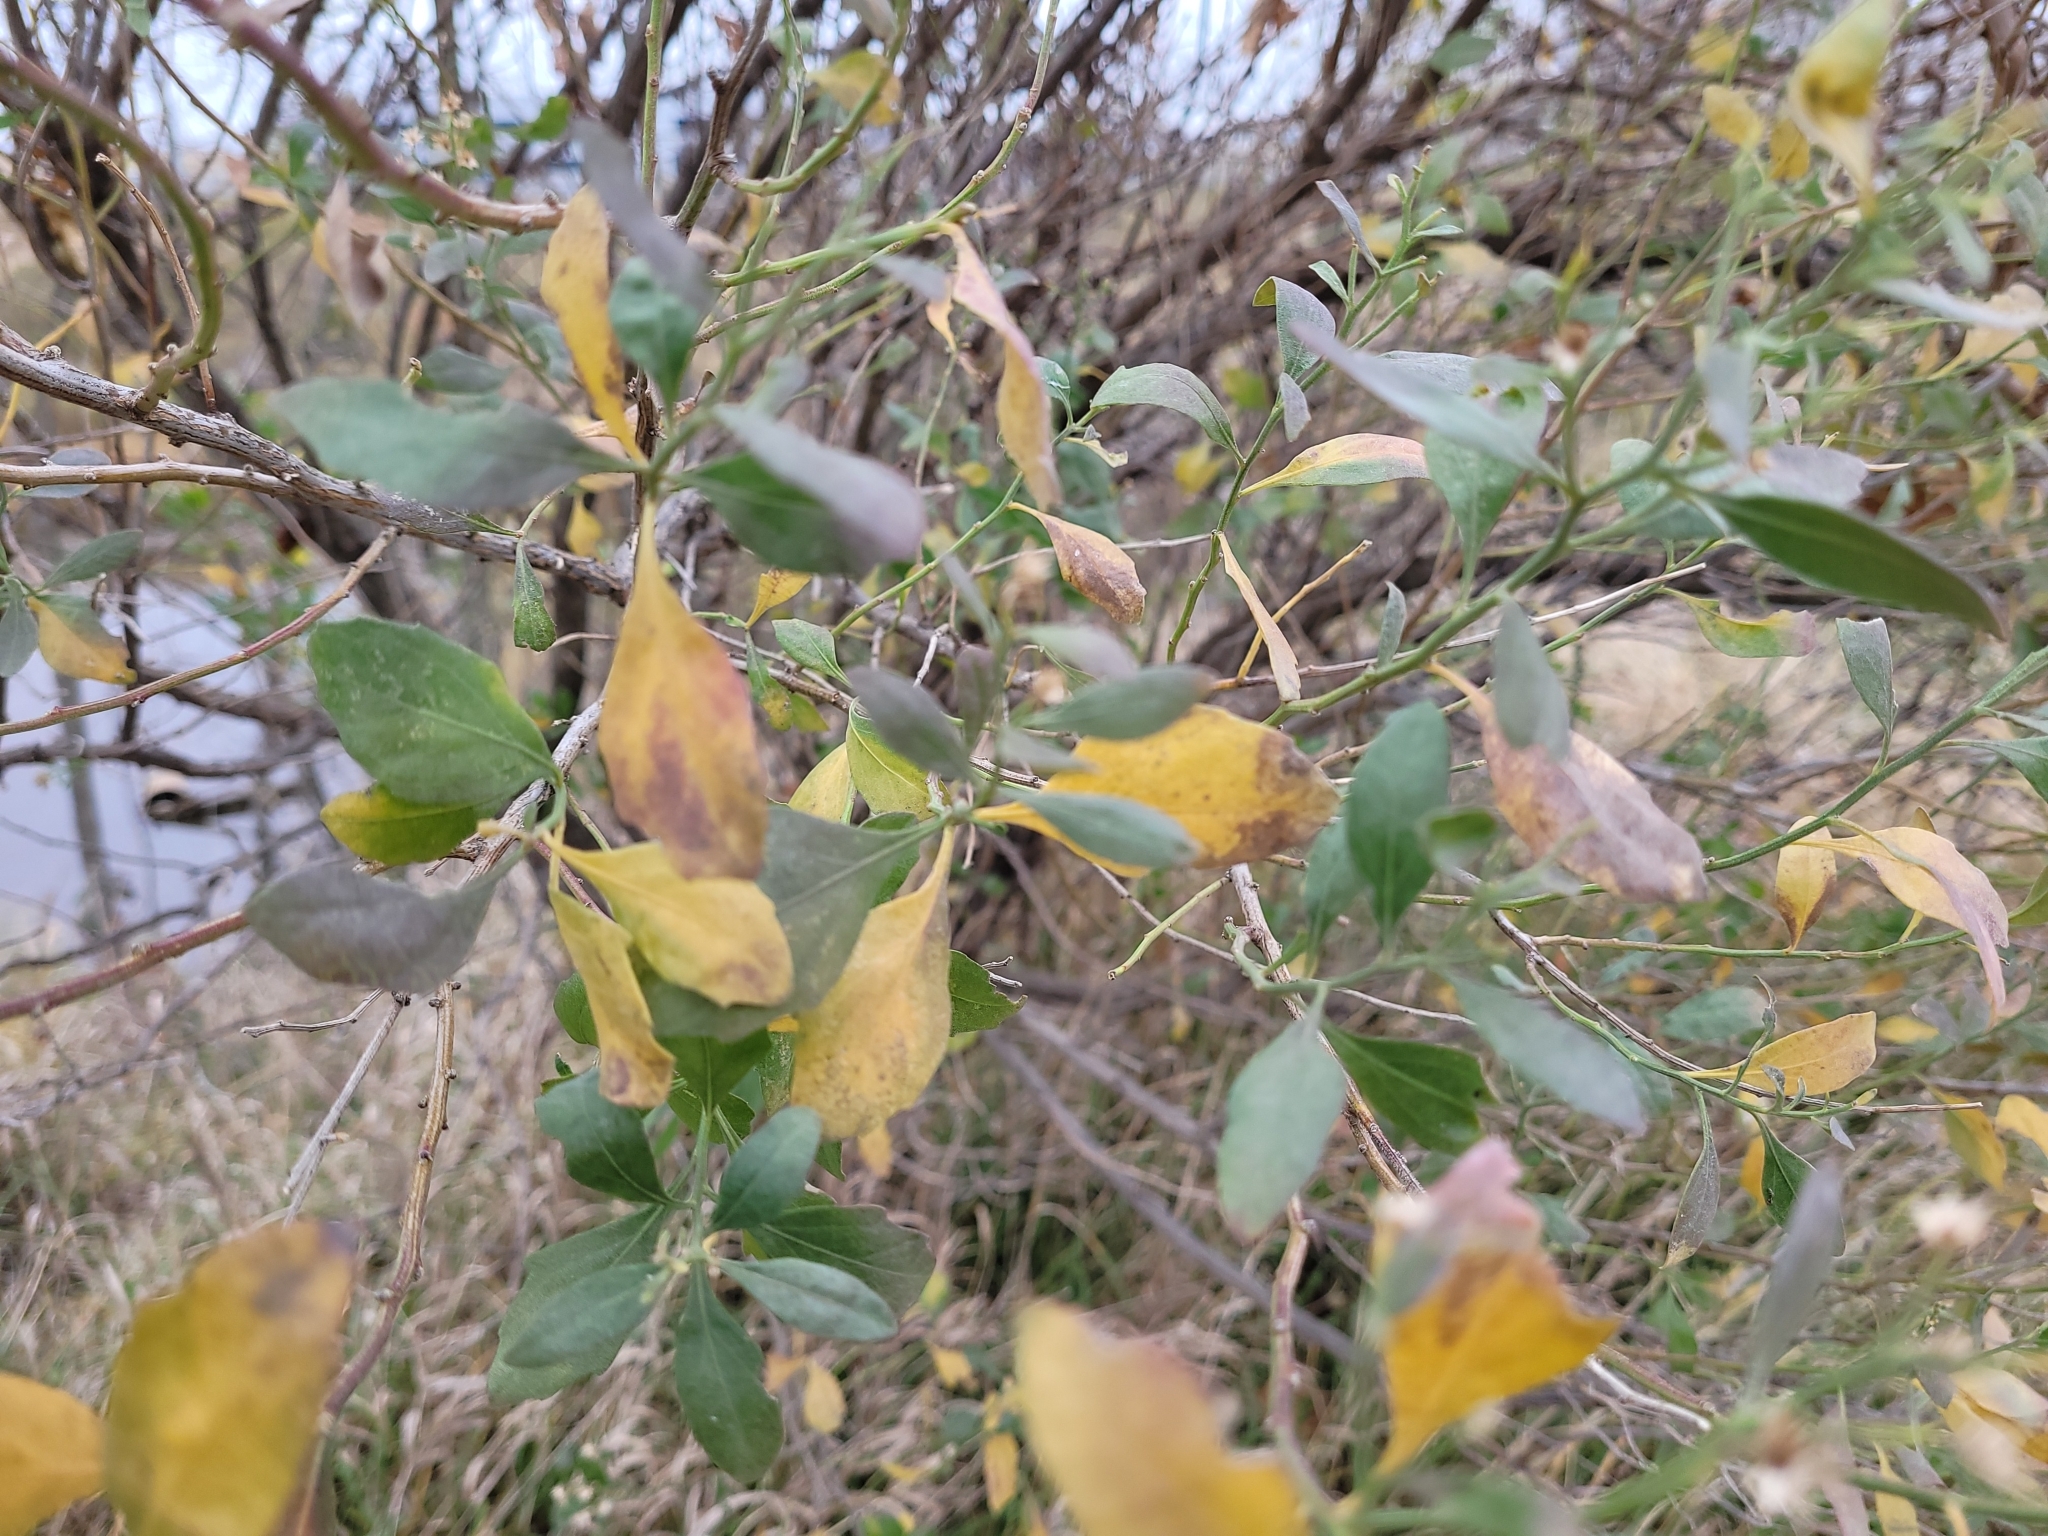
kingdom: Plantae
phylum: Tracheophyta
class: Magnoliopsida
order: Asterales
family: Asteraceae
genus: Baccharis
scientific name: Baccharis halimifolia
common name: Eastern baccharis
